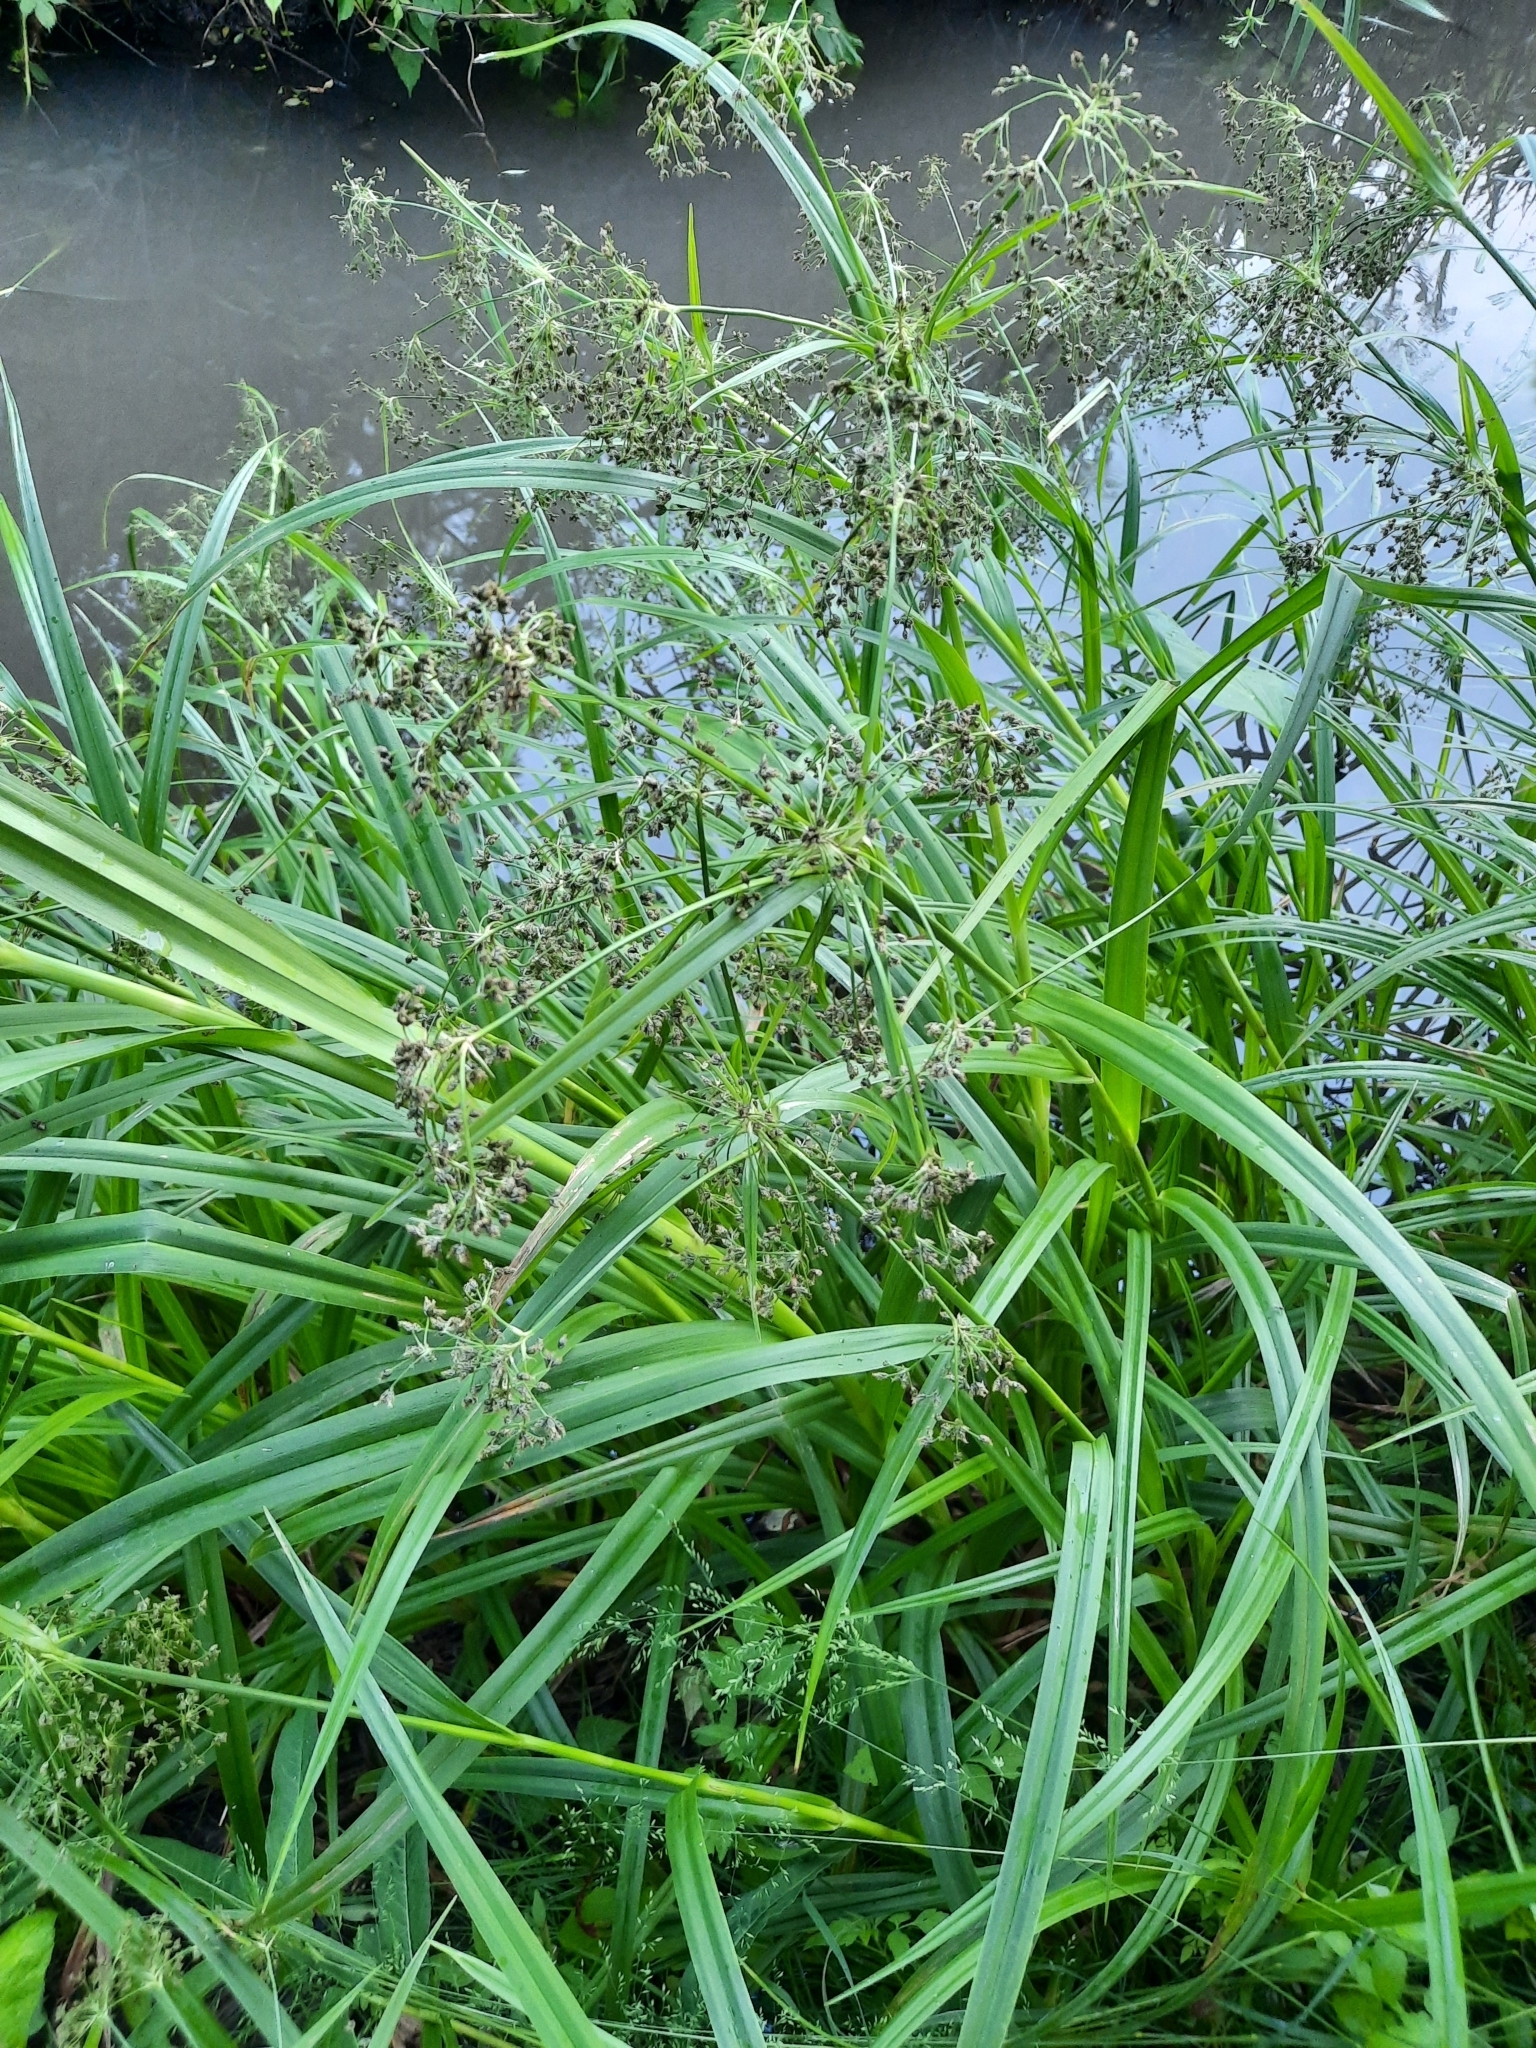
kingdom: Plantae
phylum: Tracheophyta
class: Liliopsida
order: Poales
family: Cyperaceae
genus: Scirpus
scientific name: Scirpus sylvaticus
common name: Wood club-rush
